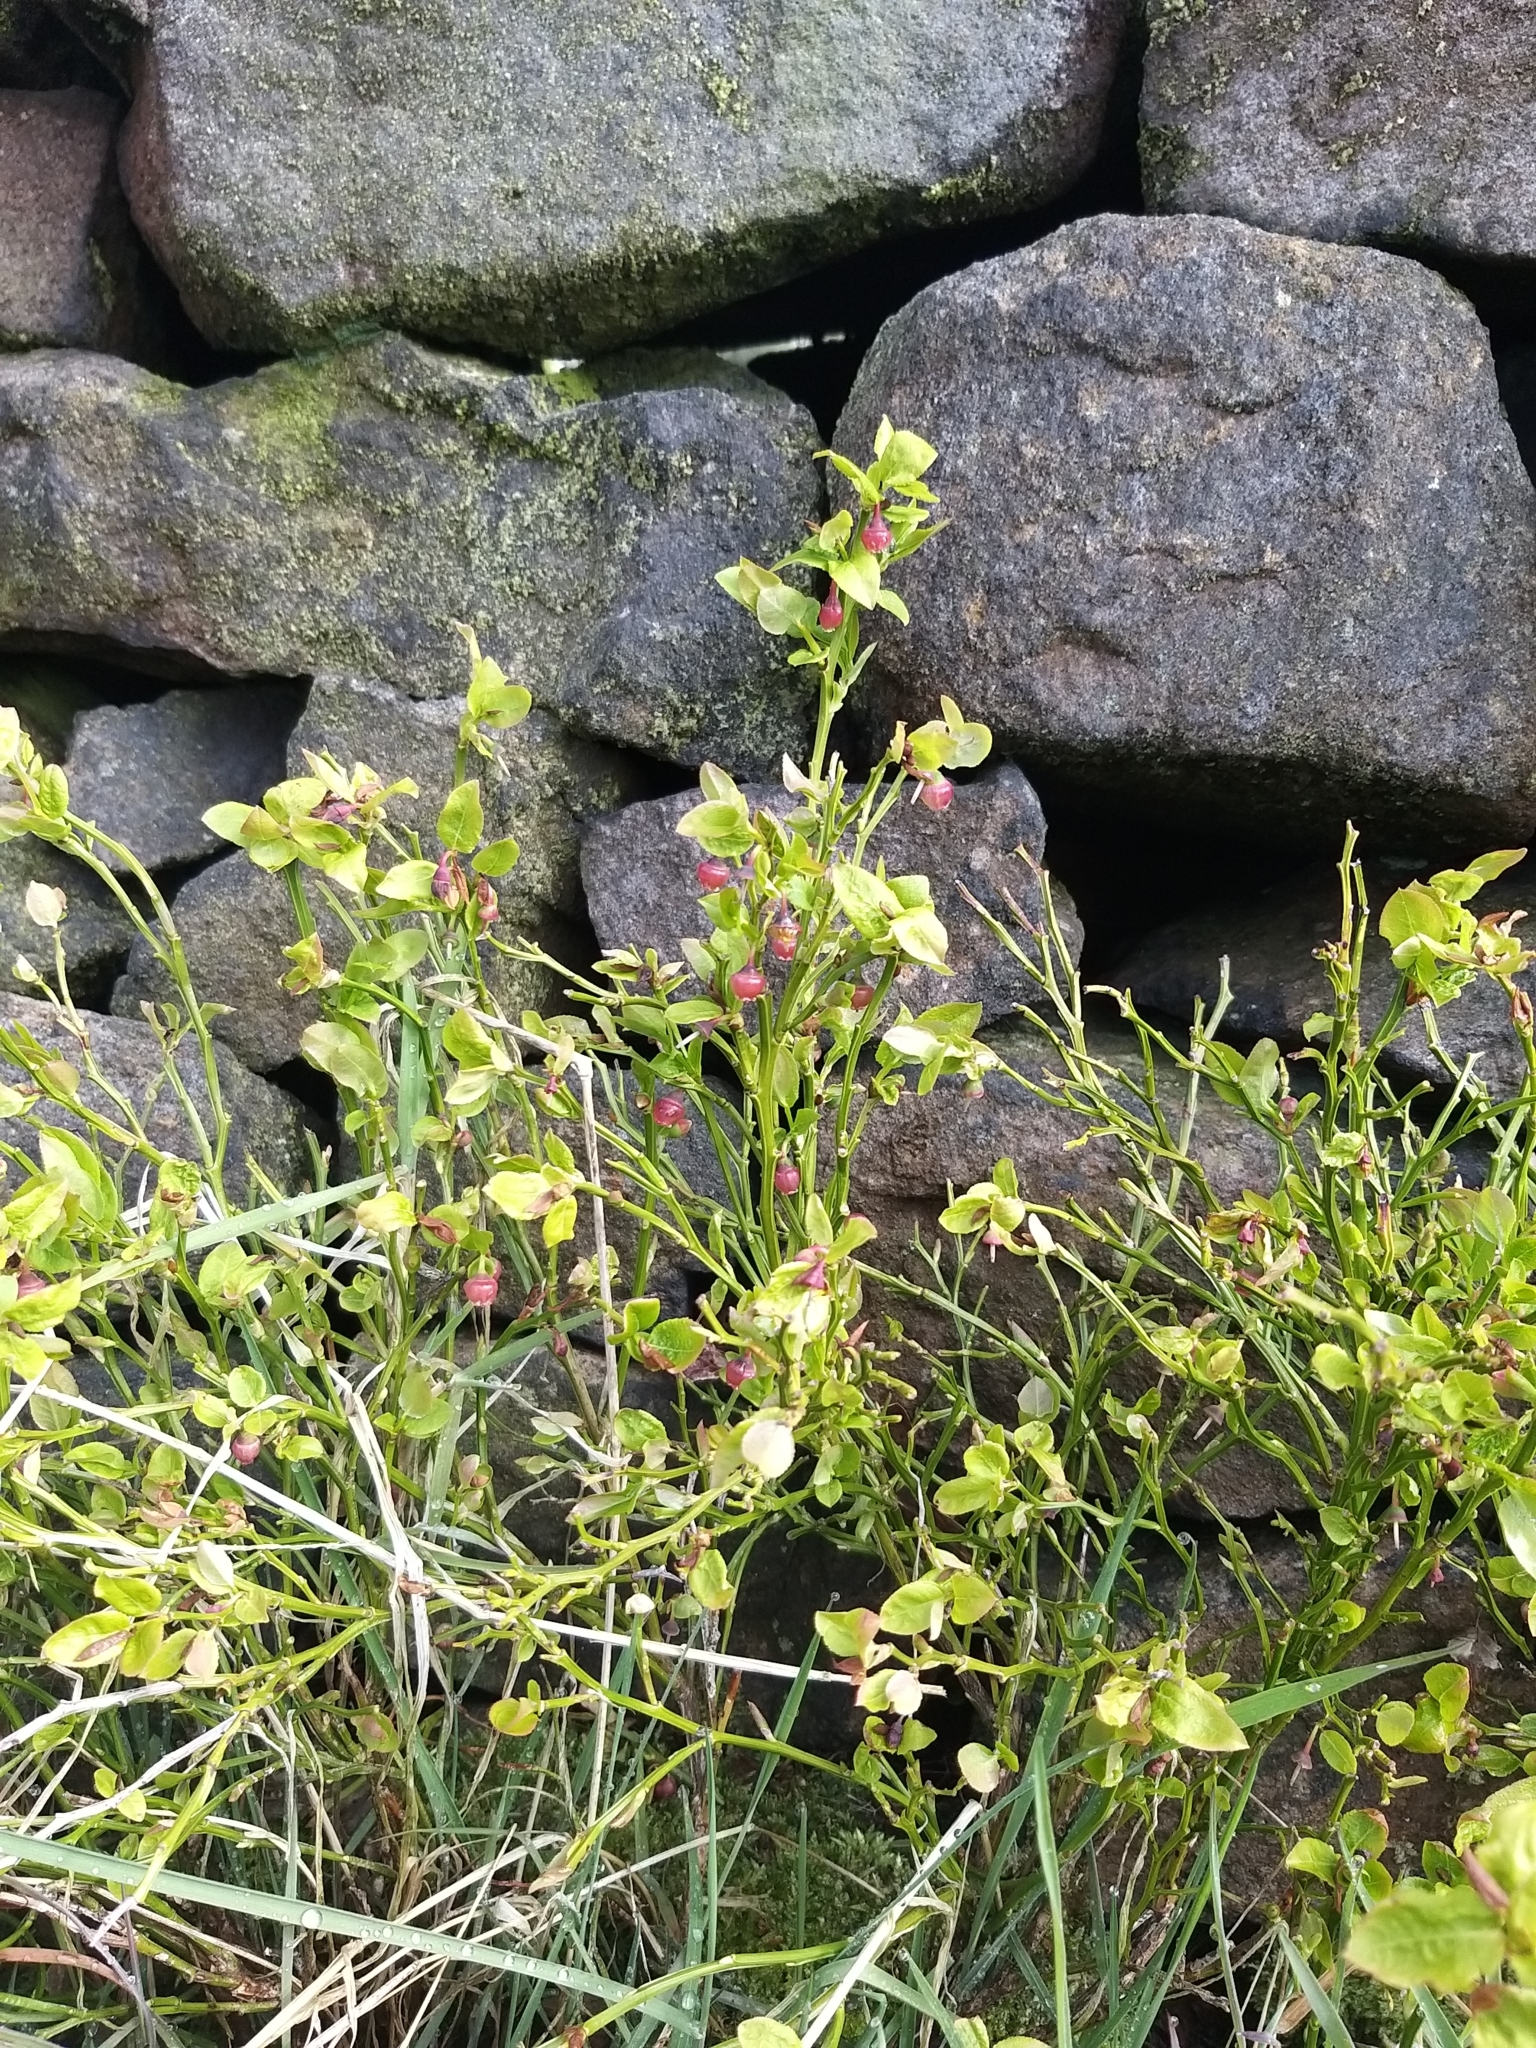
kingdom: Plantae
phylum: Tracheophyta
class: Magnoliopsida
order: Ericales
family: Ericaceae
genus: Vaccinium
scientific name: Vaccinium myrtillus
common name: Bilberry
